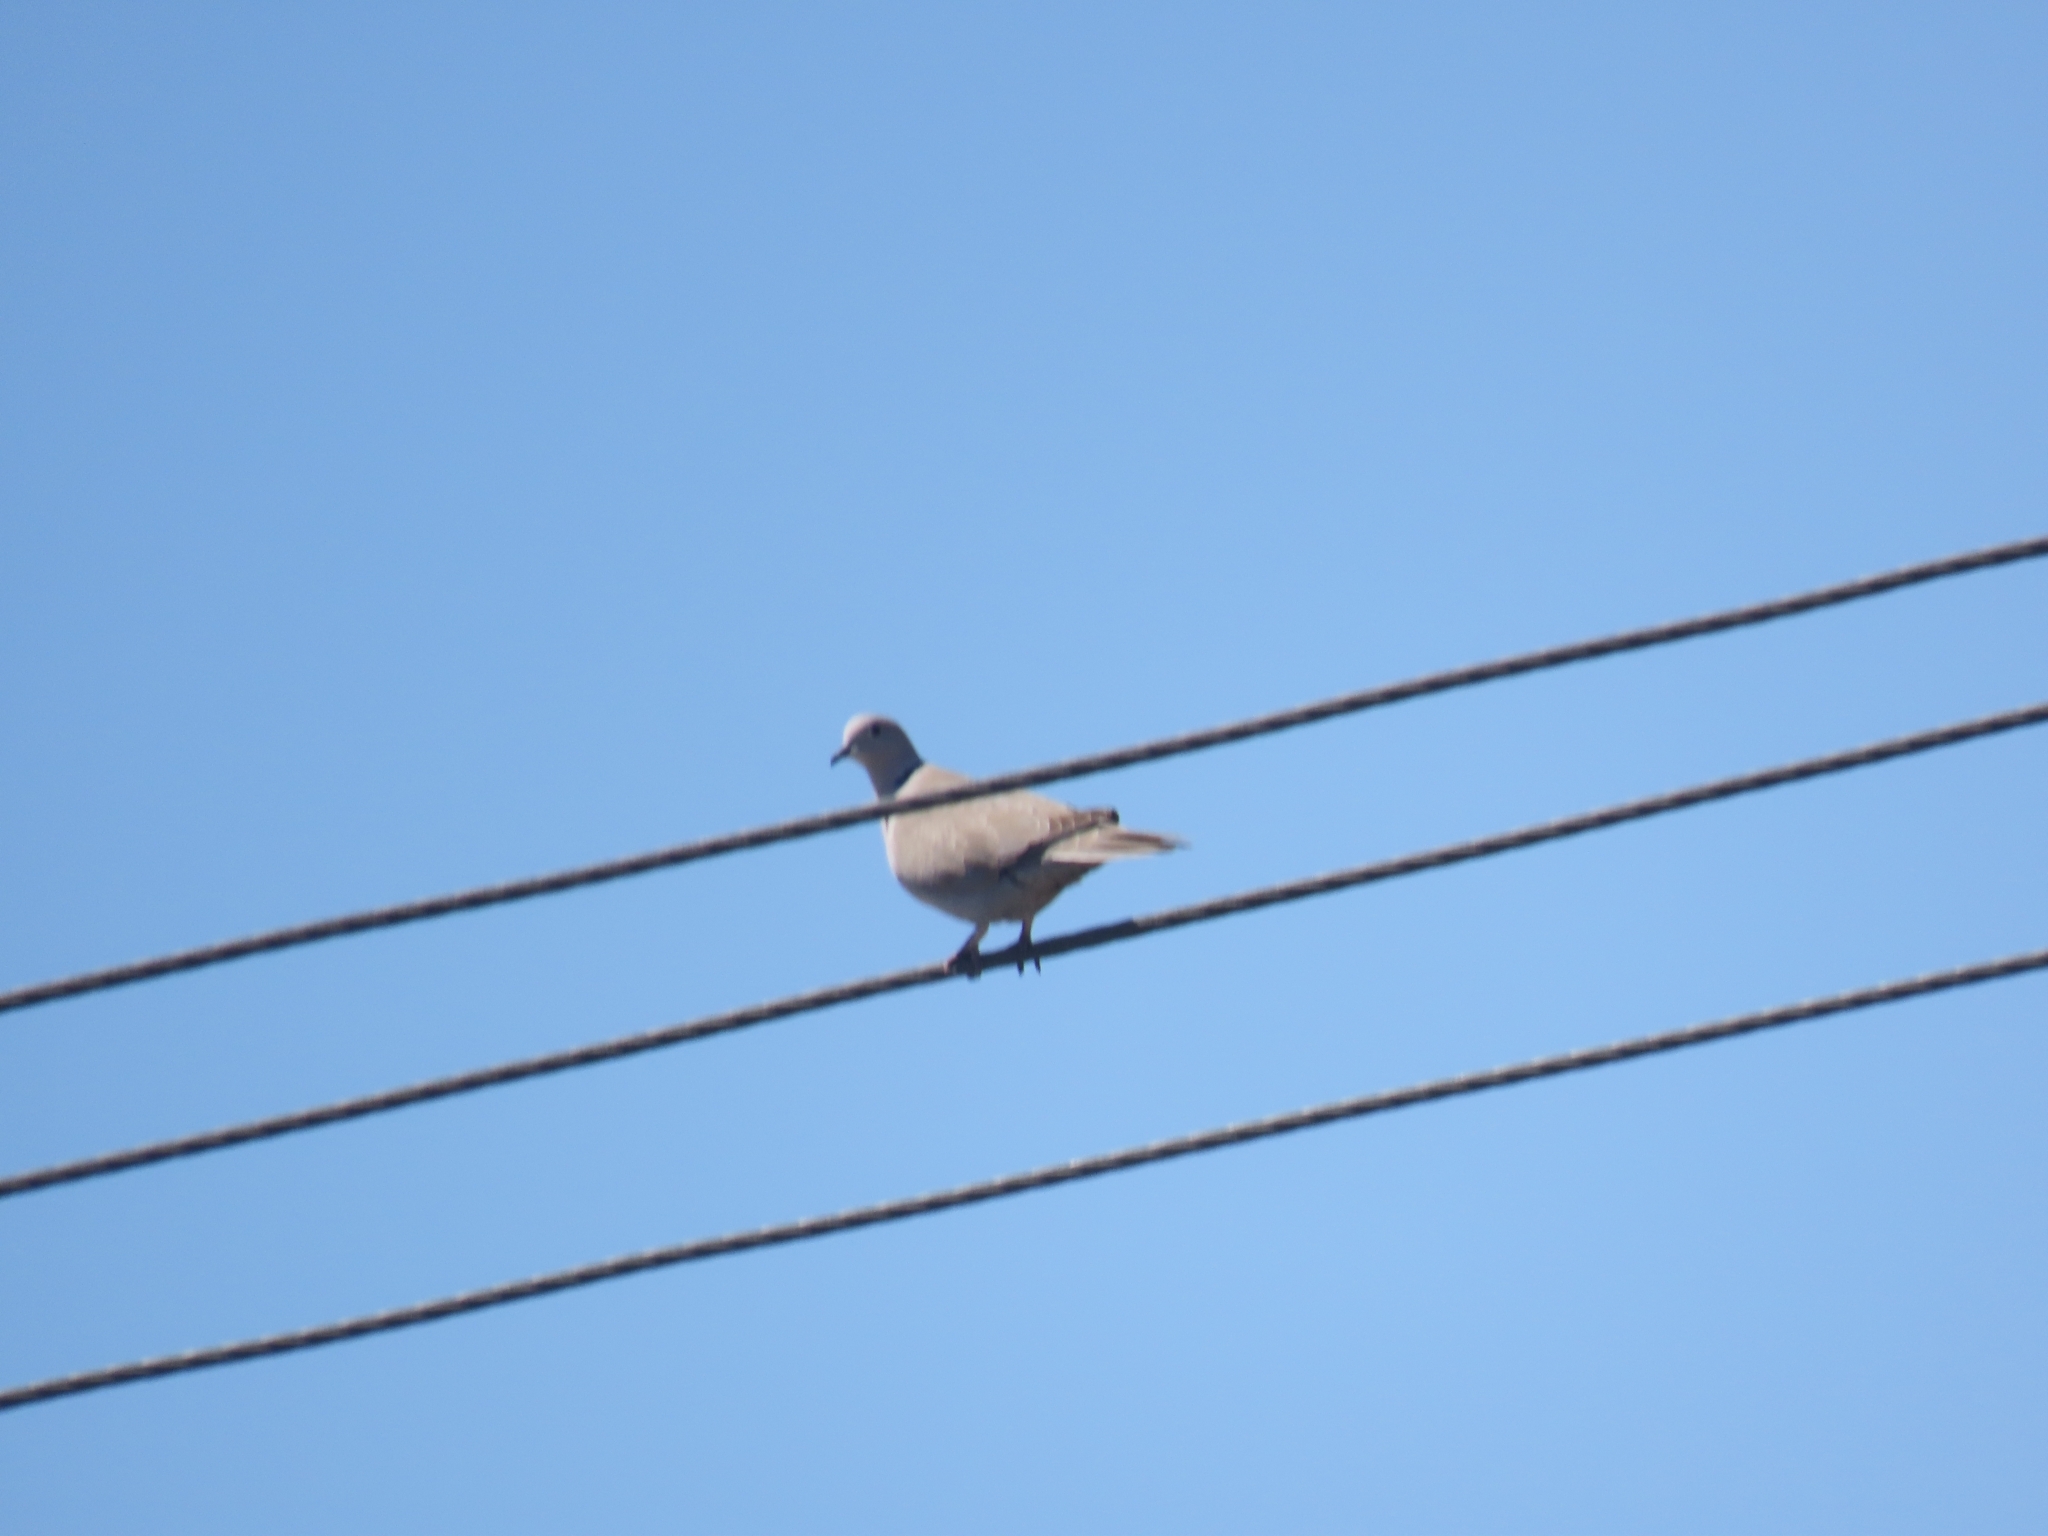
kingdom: Animalia
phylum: Chordata
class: Aves
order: Columbiformes
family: Columbidae
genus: Streptopelia
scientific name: Streptopelia decaocto
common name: Eurasian collared dove
